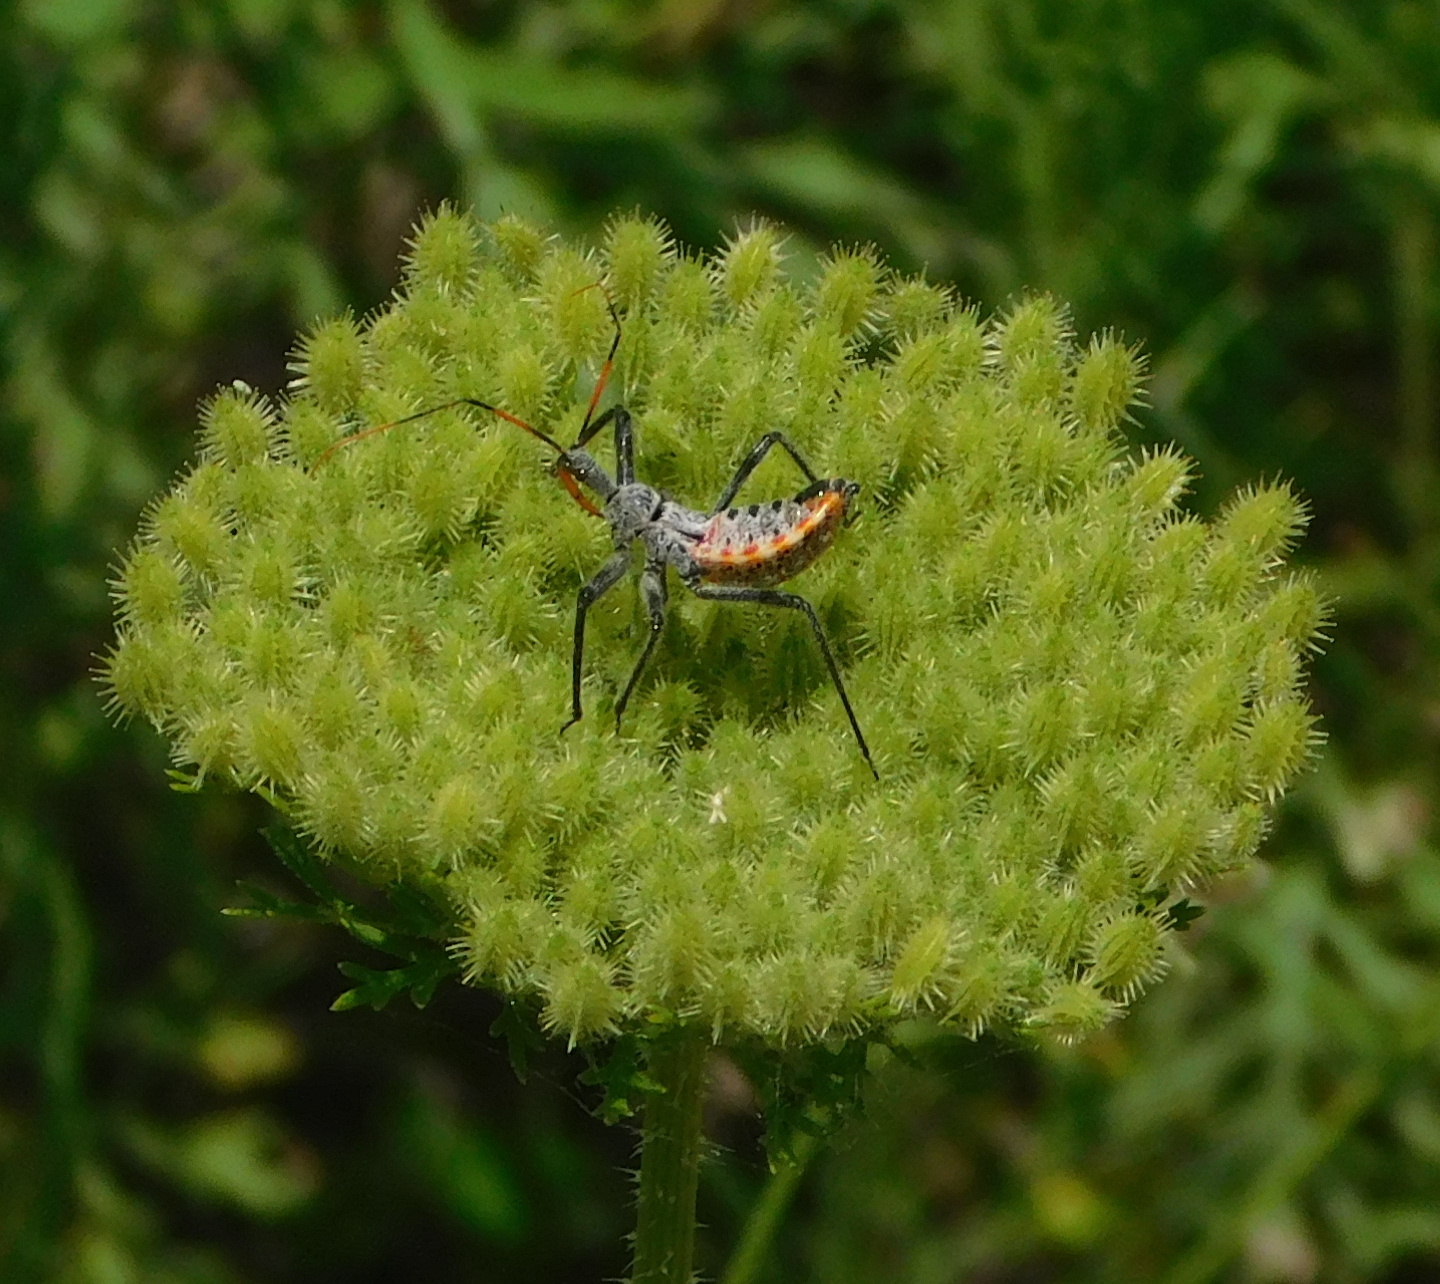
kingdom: Animalia
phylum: Arthropoda
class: Insecta
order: Hemiptera
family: Reduviidae
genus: Arilus
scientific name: Arilus cristatus
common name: North american wheel bug
